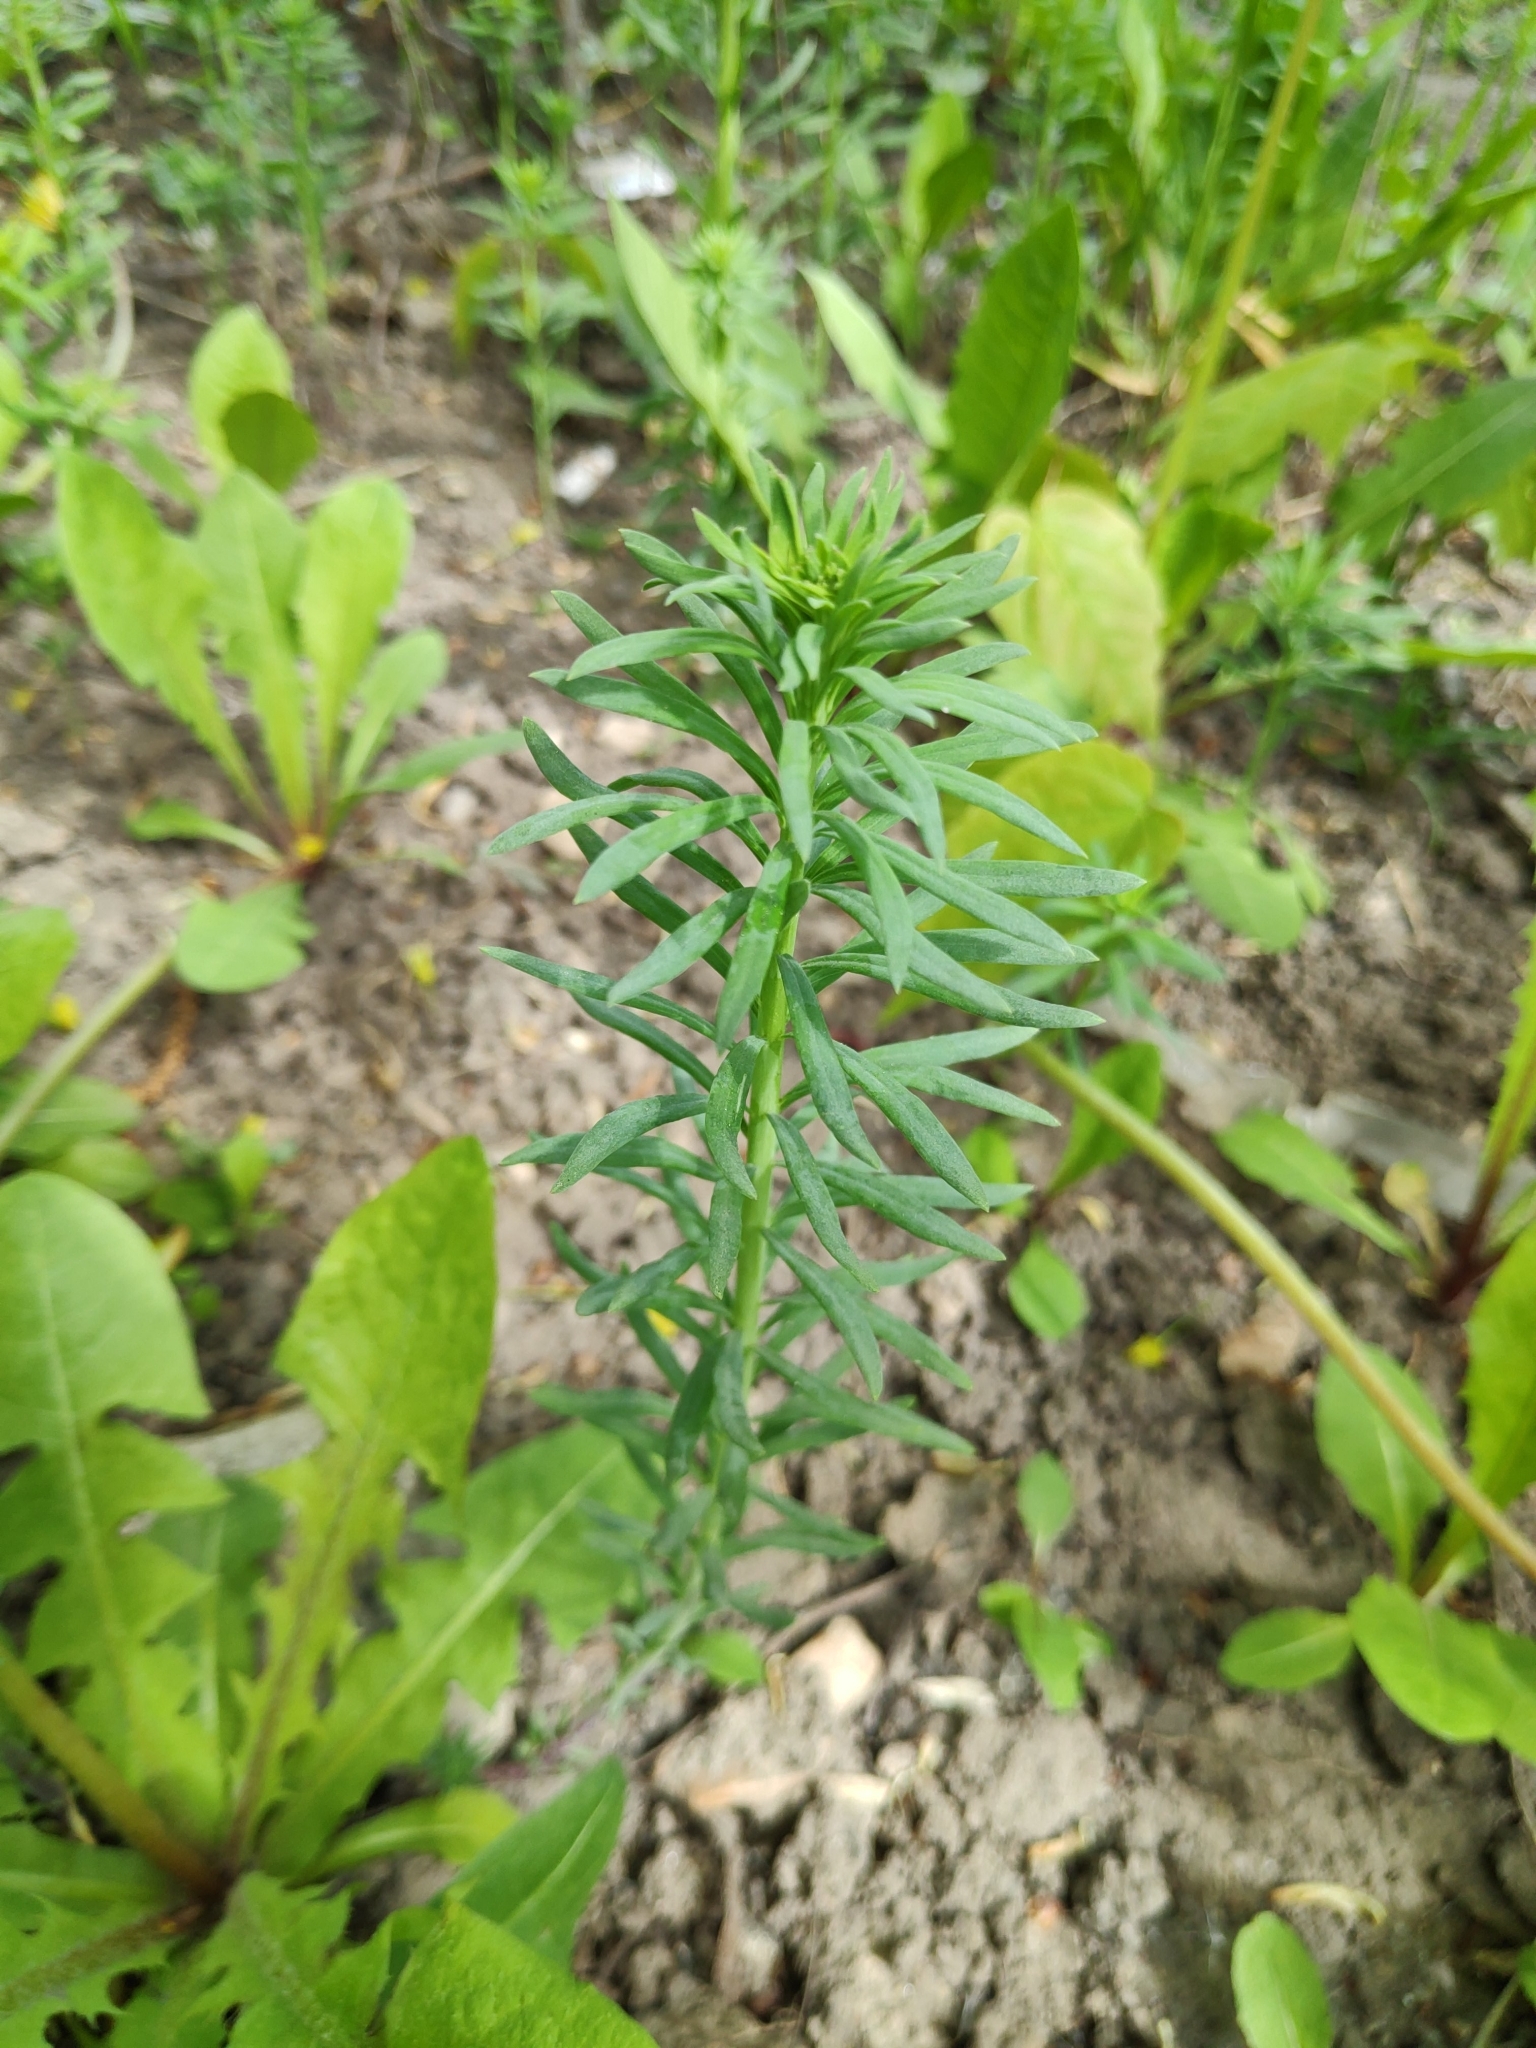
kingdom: Plantae
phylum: Tracheophyta
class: Magnoliopsida
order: Lamiales
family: Plantaginaceae
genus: Linaria
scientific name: Linaria vulgaris
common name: Butter and eggs
